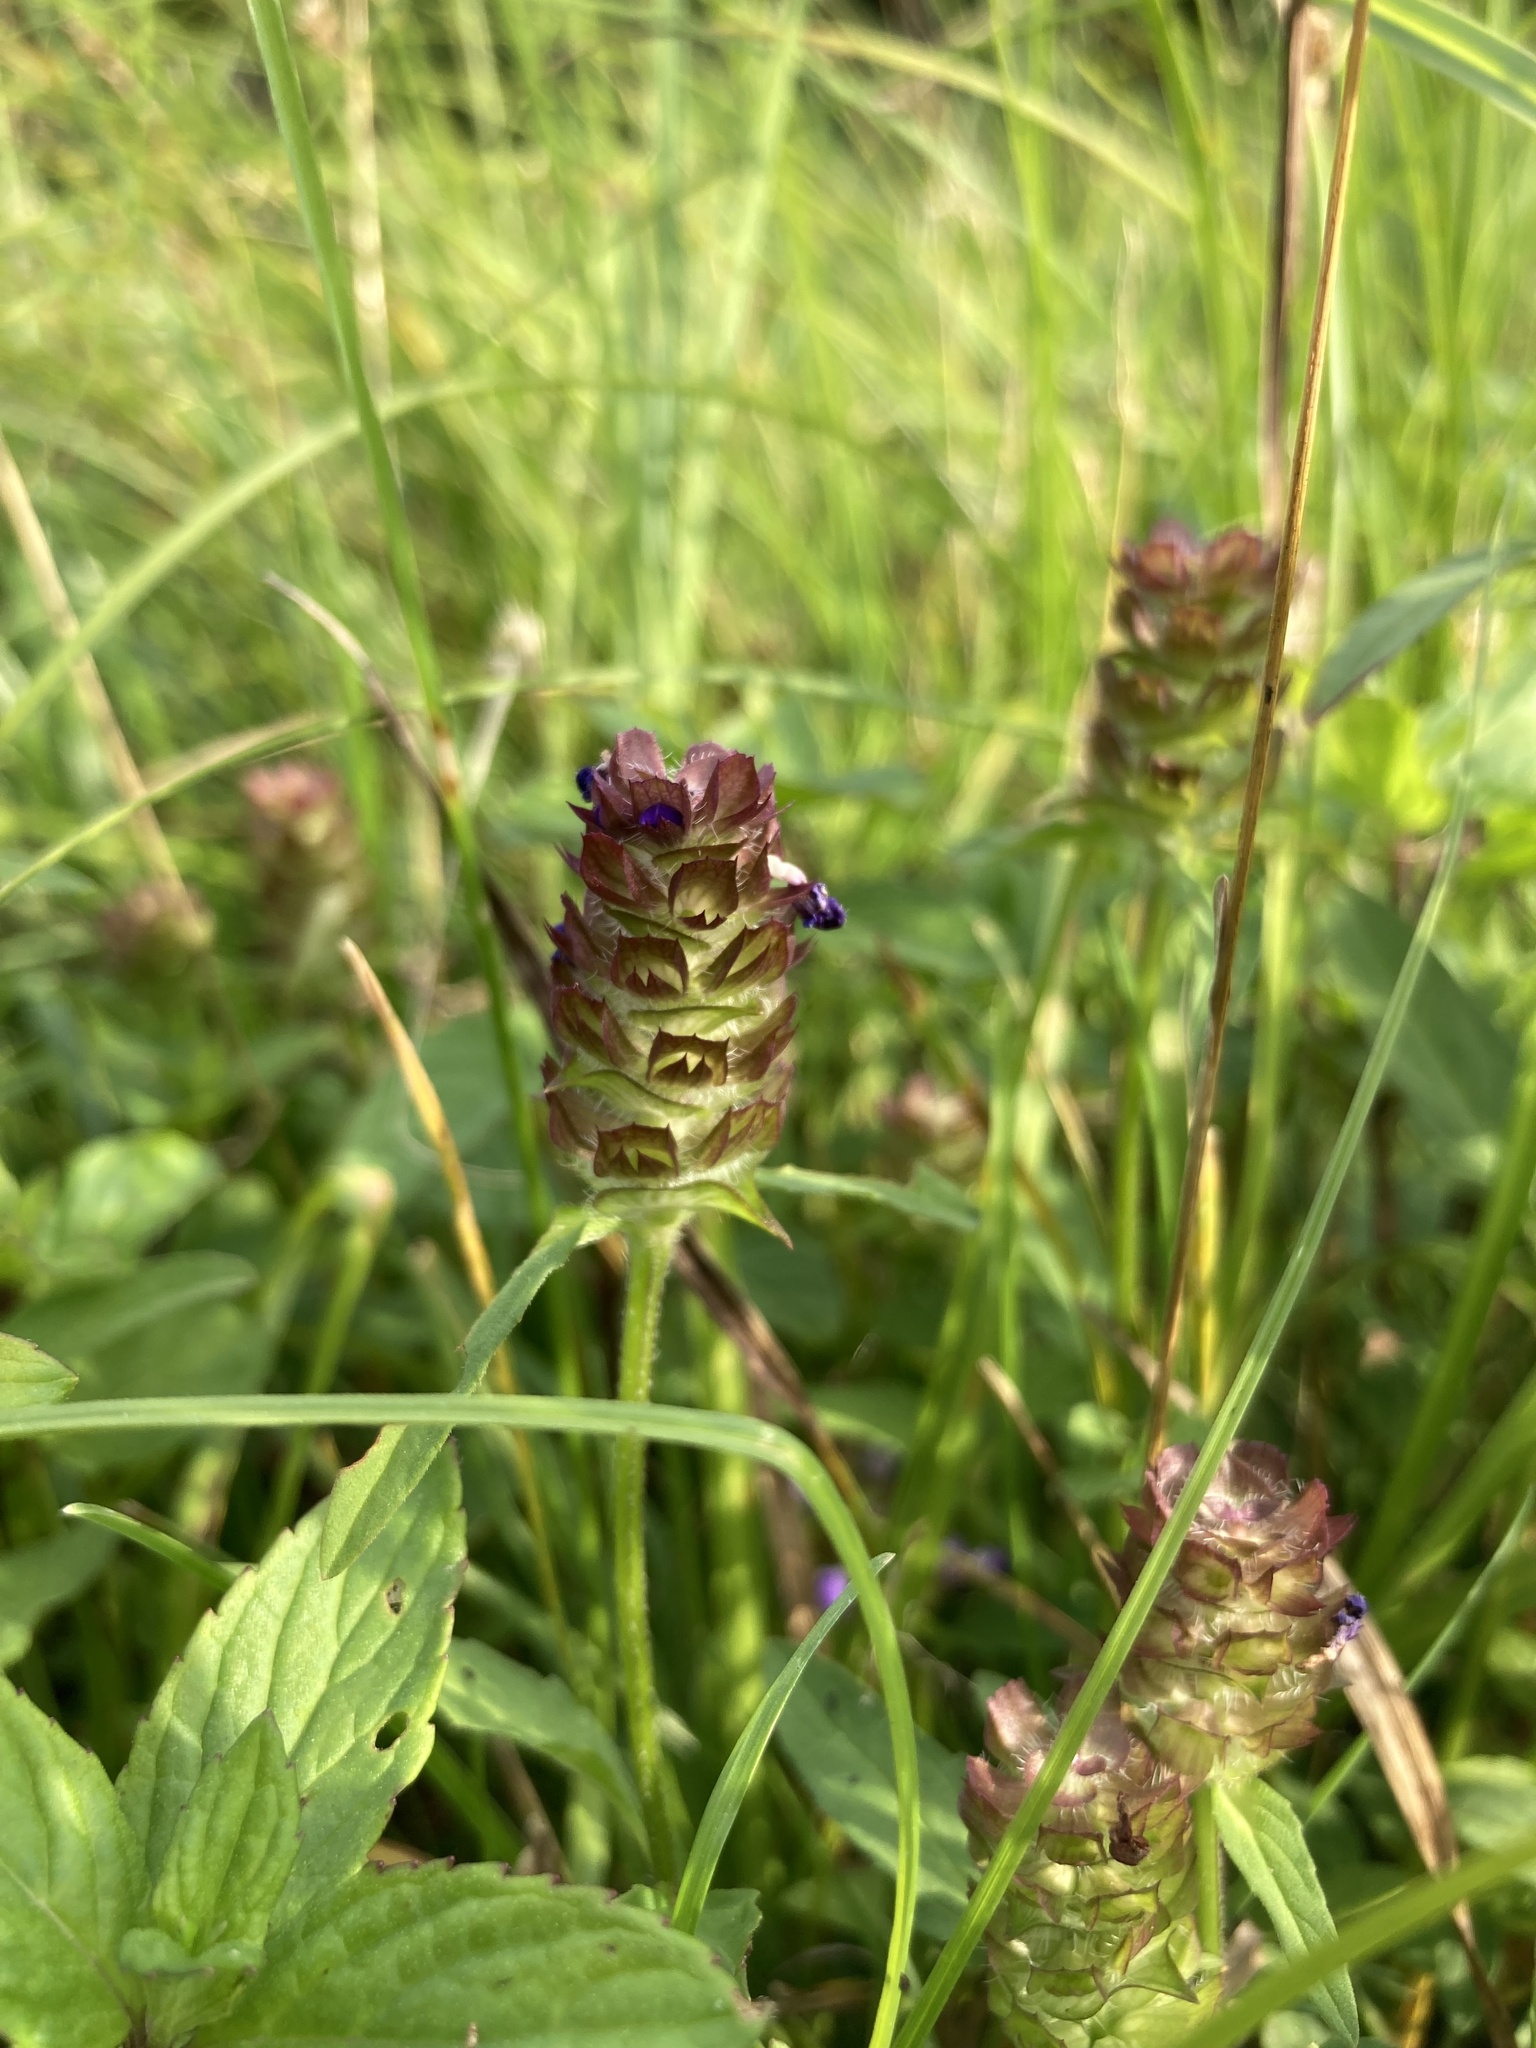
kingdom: Plantae
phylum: Tracheophyta
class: Magnoliopsida
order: Lamiales
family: Lamiaceae
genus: Prunella
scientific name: Prunella vulgaris
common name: Heal-all
